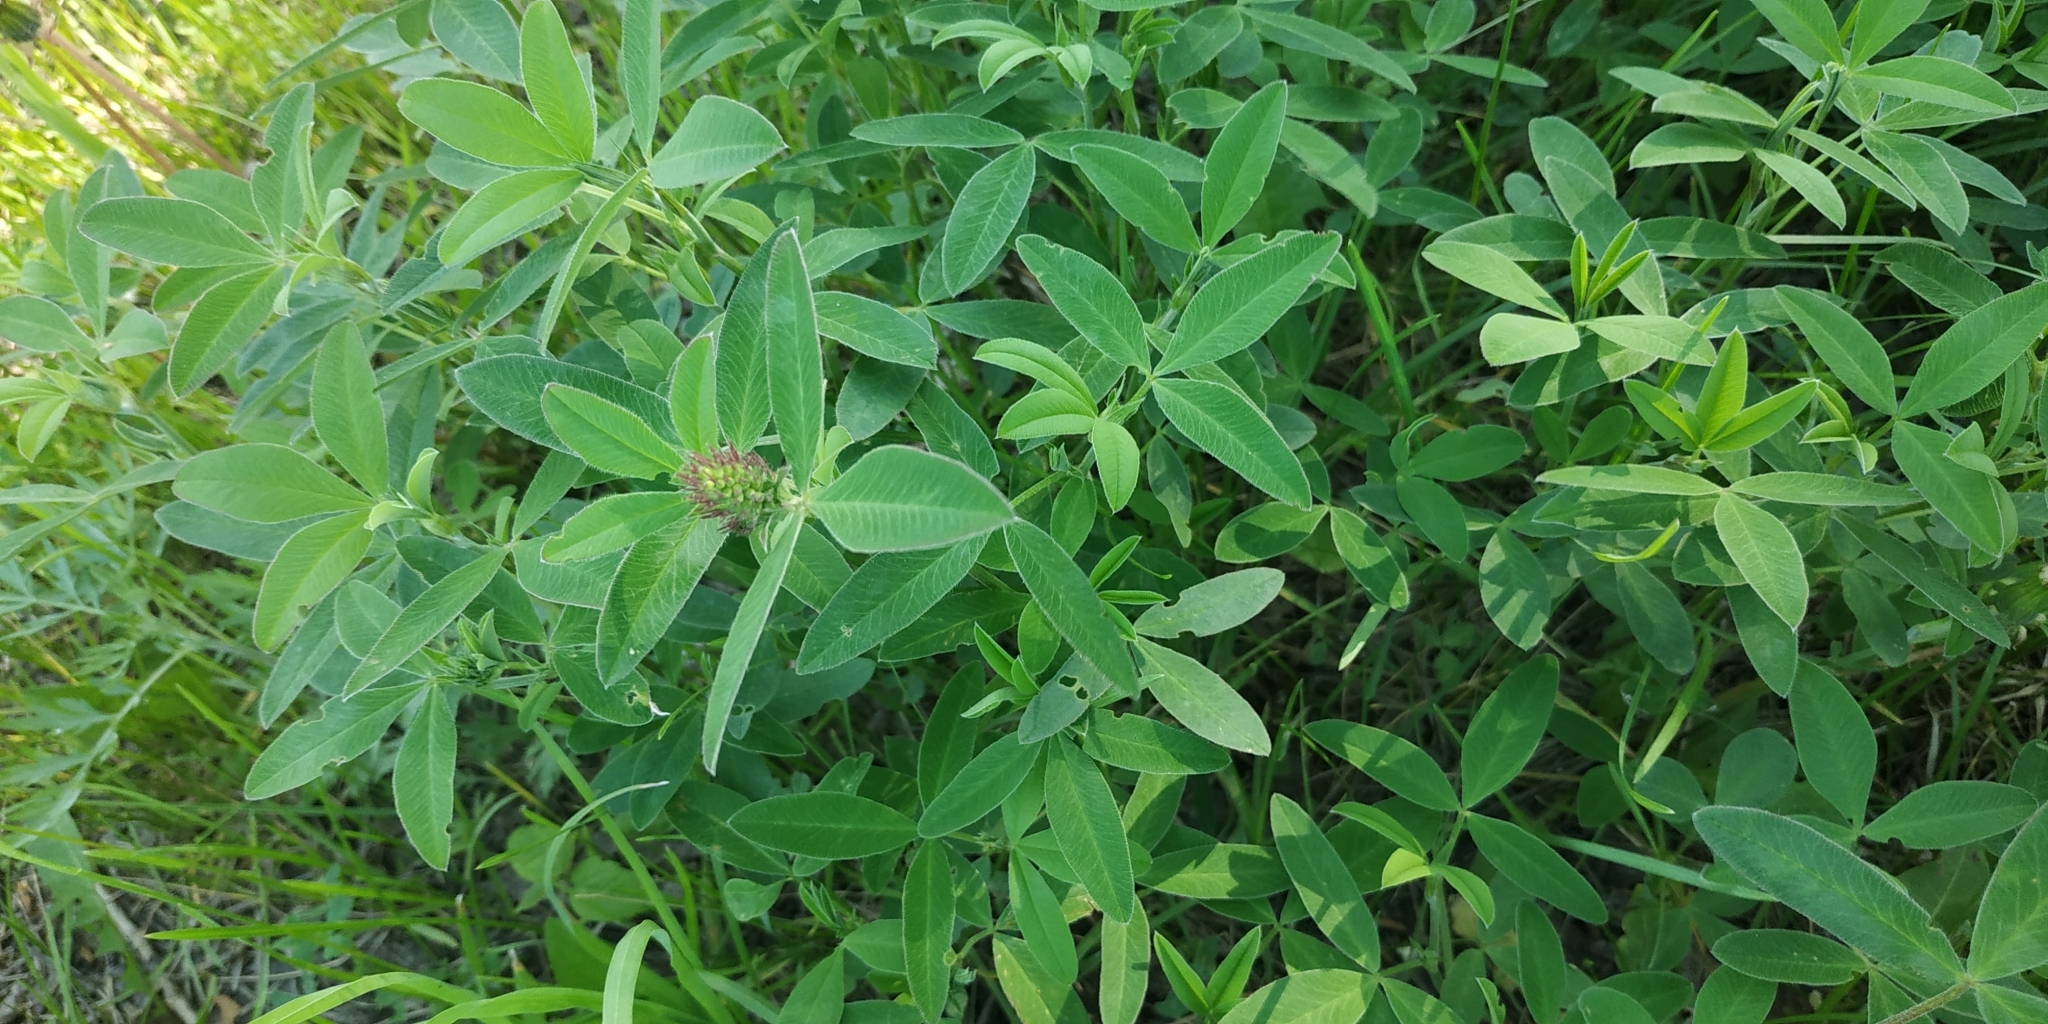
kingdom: Plantae
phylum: Tracheophyta
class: Magnoliopsida
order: Fabales
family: Fabaceae
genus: Trifolium
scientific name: Trifolium medium
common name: Zigzag clover
